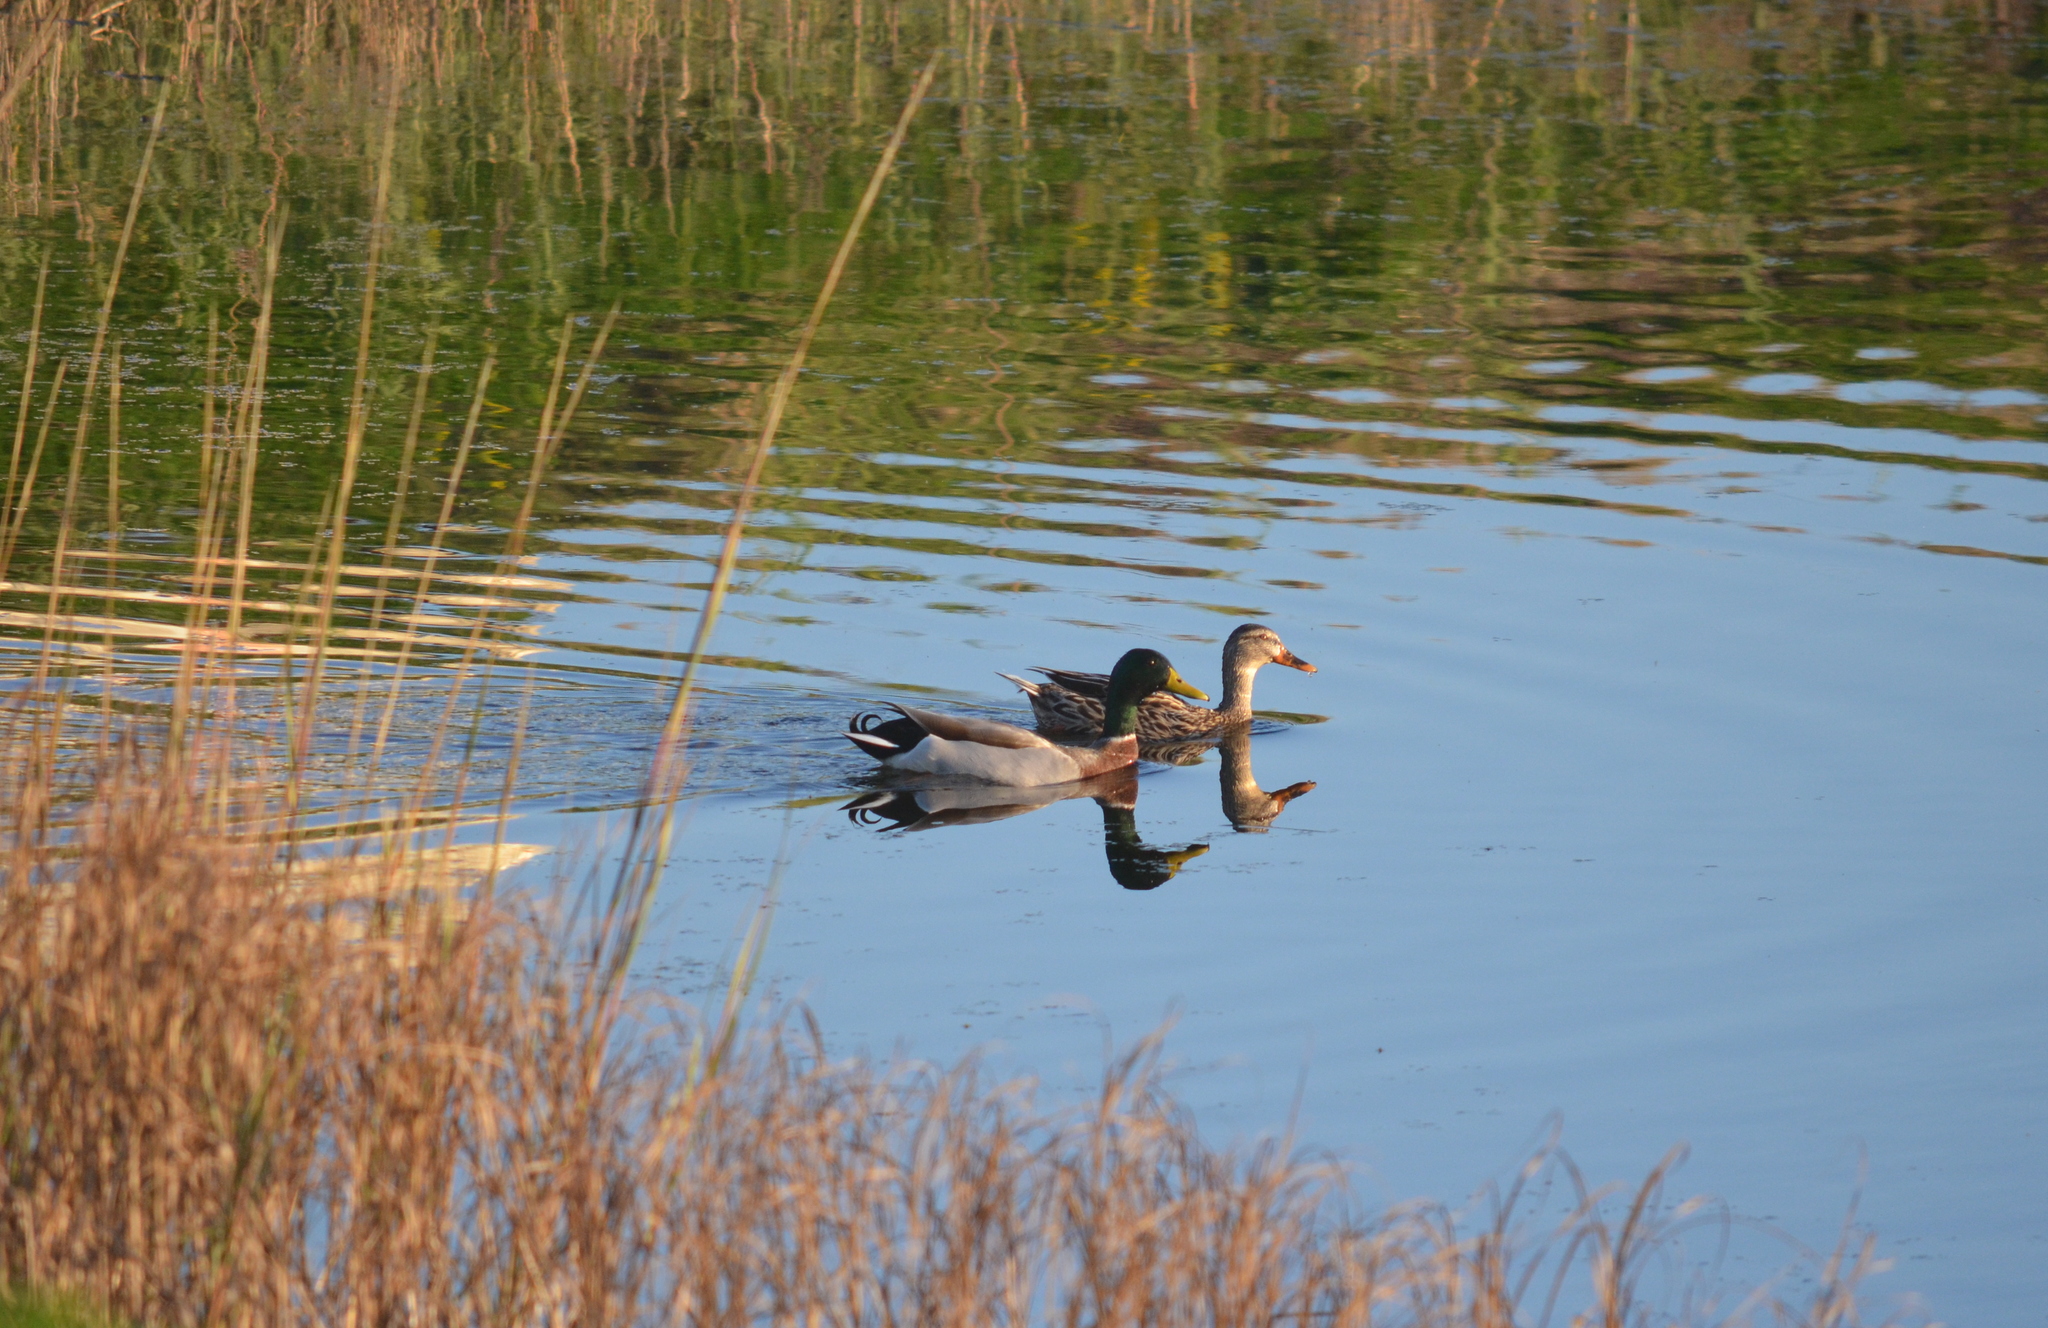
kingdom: Animalia
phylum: Chordata
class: Aves
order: Anseriformes
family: Anatidae
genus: Anas
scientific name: Anas platyrhynchos
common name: Mallard
